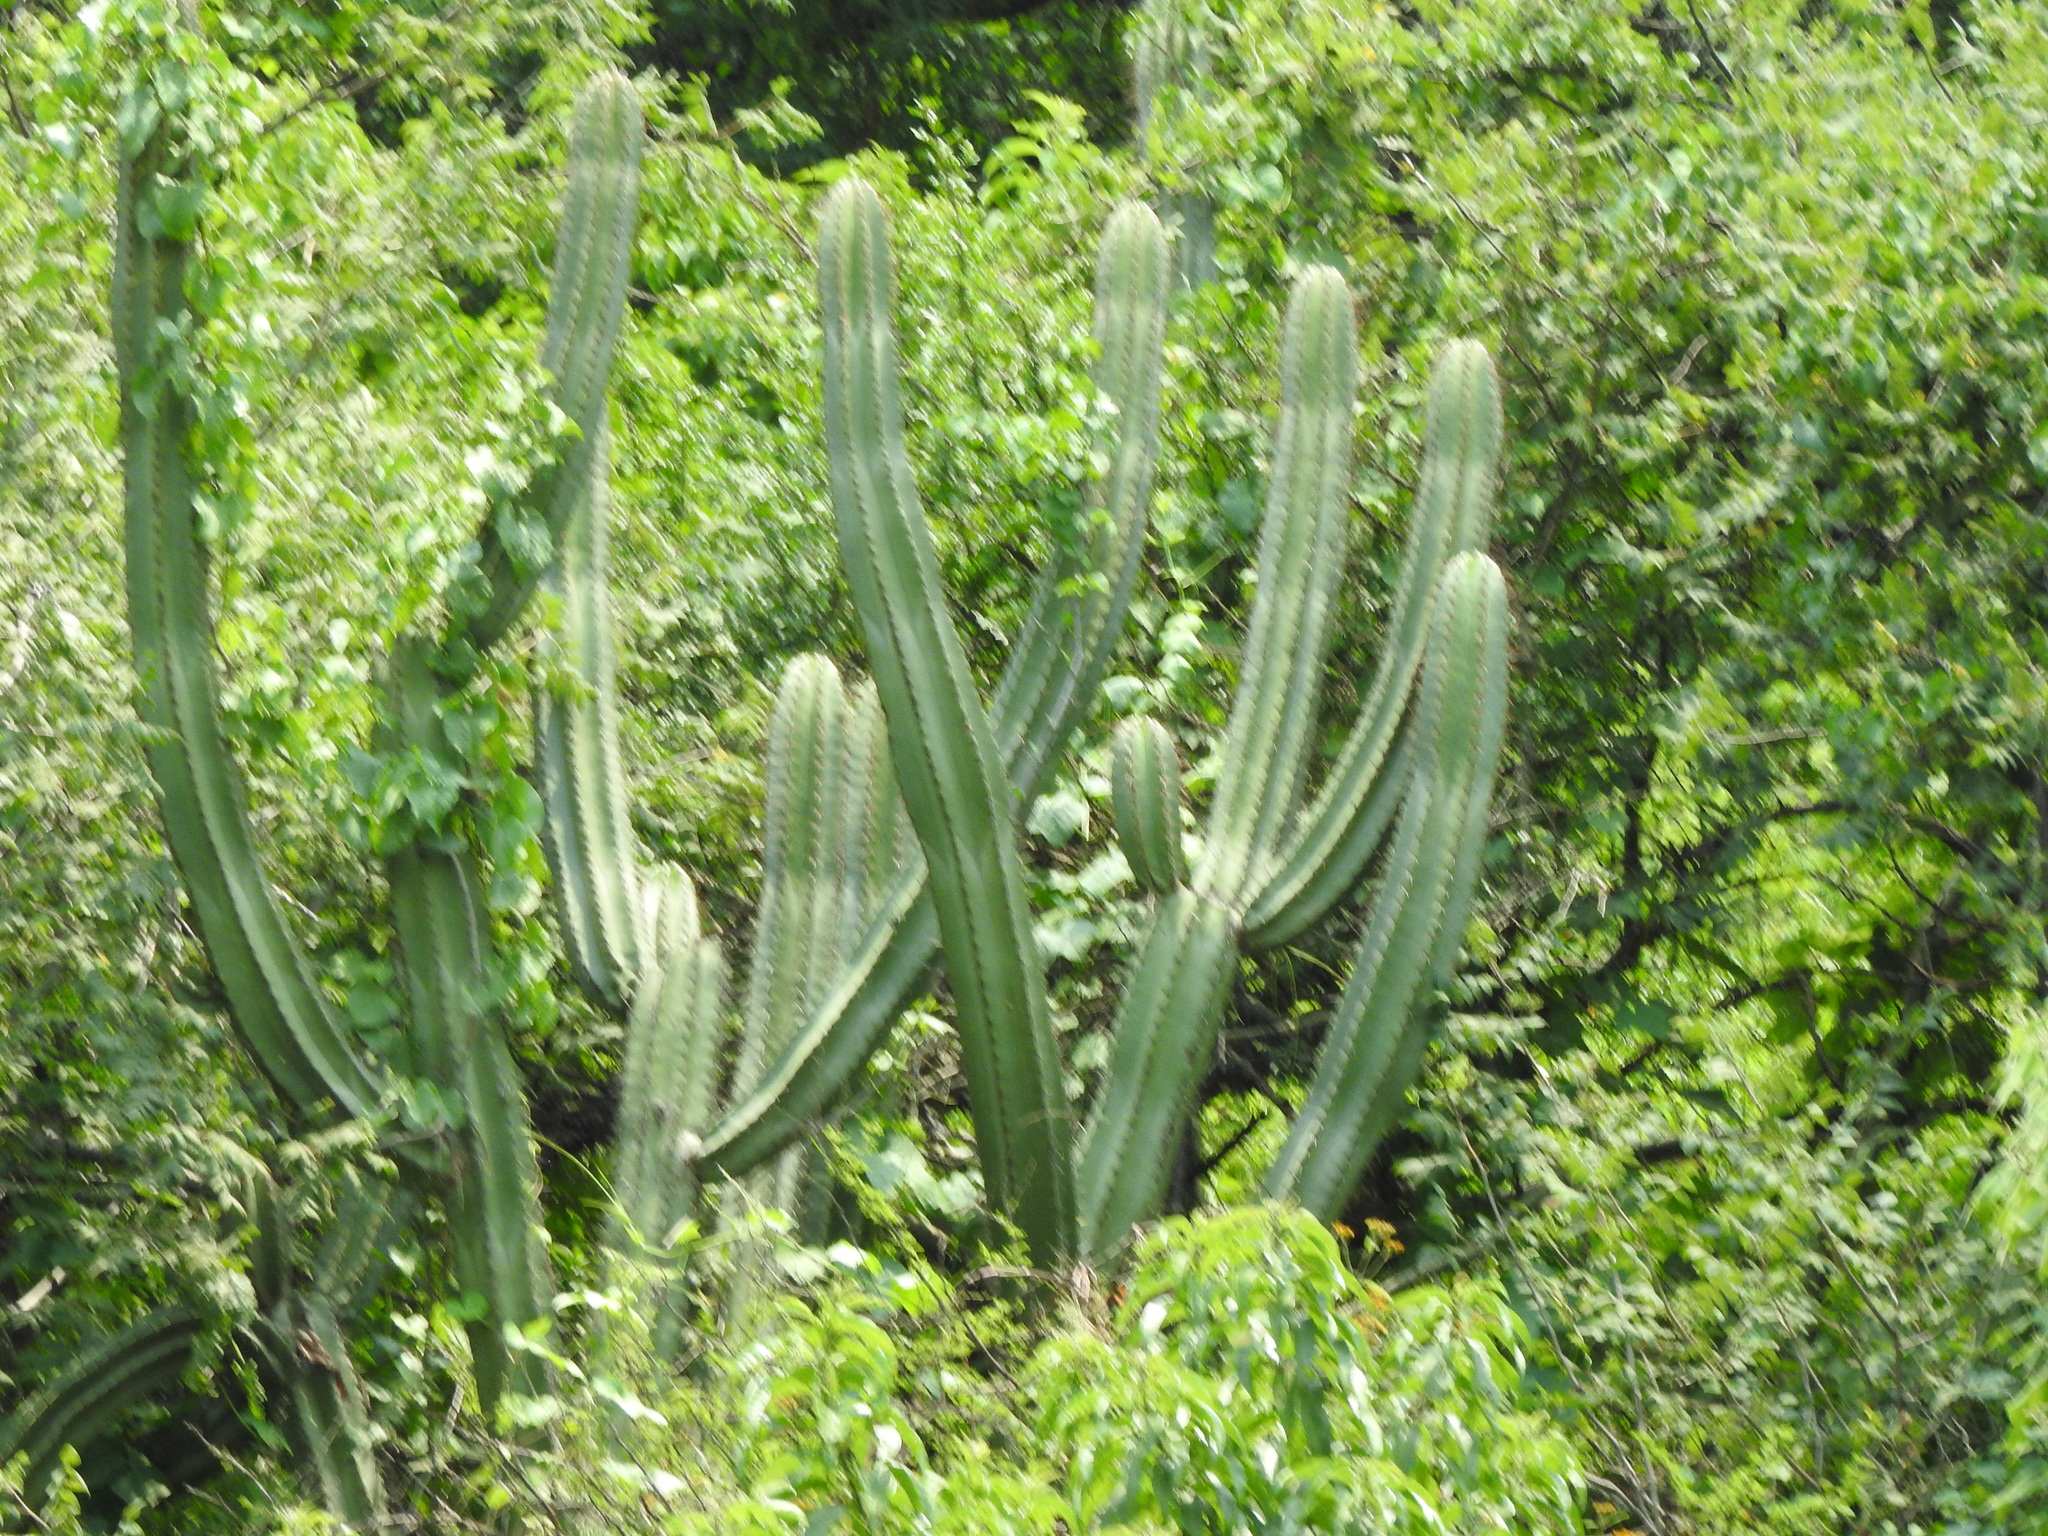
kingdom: Plantae
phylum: Tracheophyta
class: Magnoliopsida
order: Caryophyllales
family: Cactaceae
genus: Stenocereus
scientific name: Stenocereus queretaroensis
